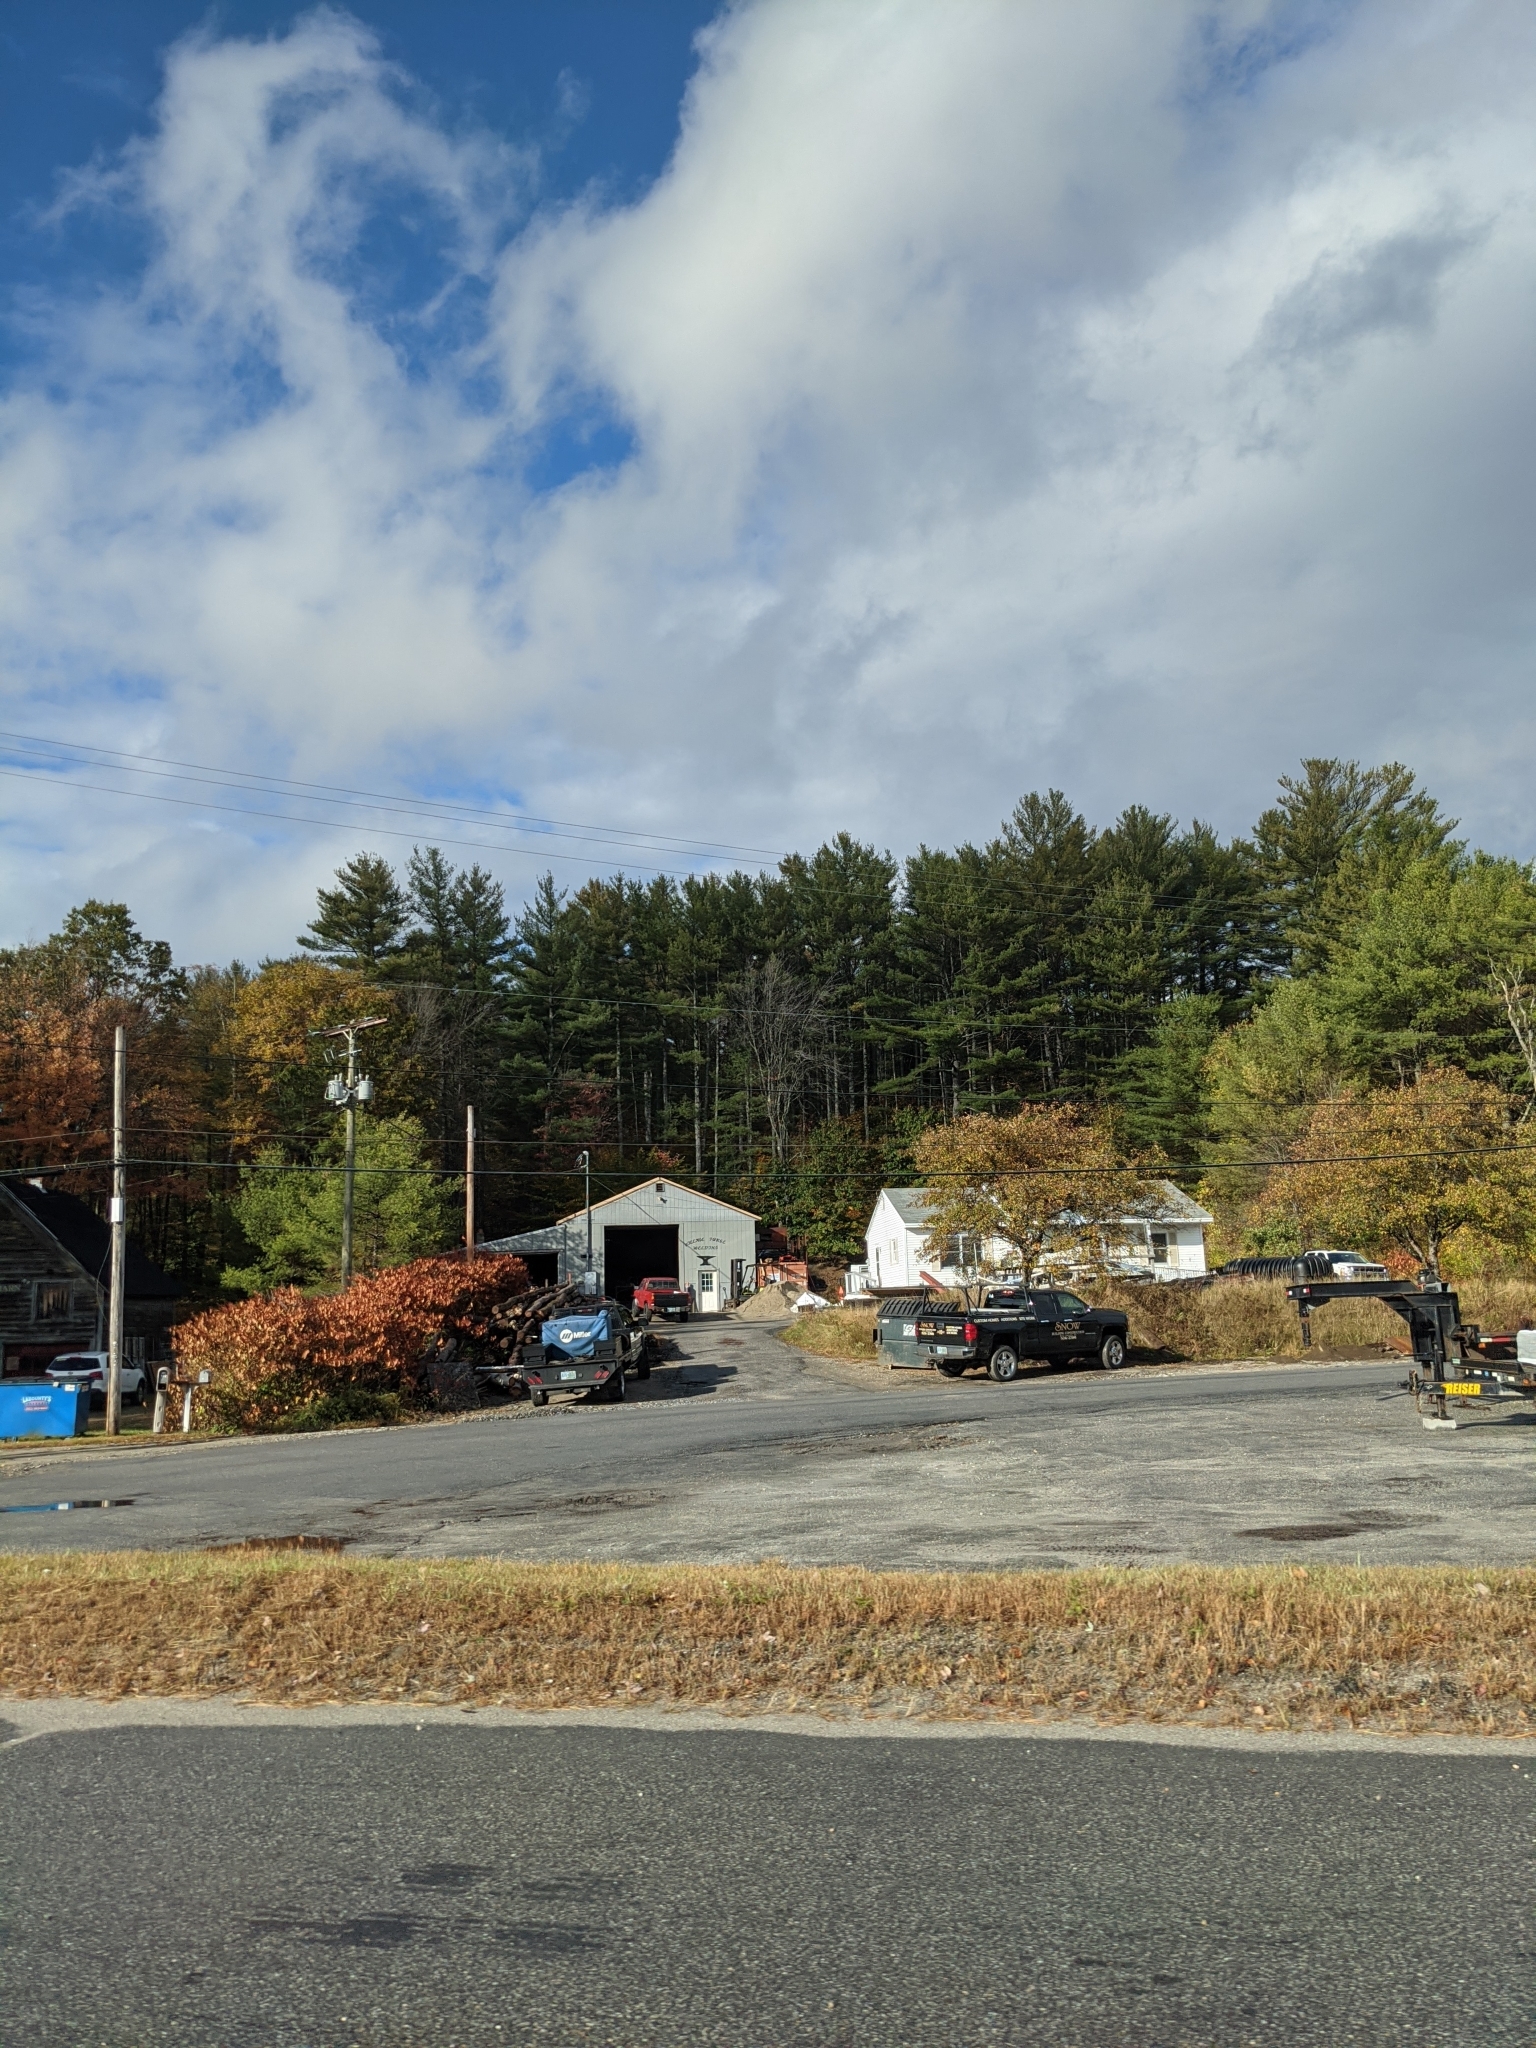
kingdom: Plantae
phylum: Tracheophyta
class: Pinopsida
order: Pinales
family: Pinaceae
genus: Pinus
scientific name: Pinus strobus
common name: Weymouth pine
